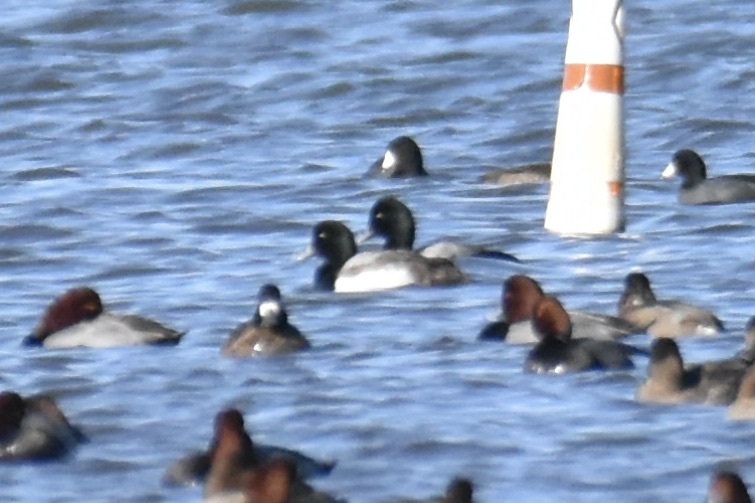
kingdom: Animalia
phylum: Chordata
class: Aves
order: Anseriformes
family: Anatidae
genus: Aythya
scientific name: Aythya marila
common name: Greater scaup
